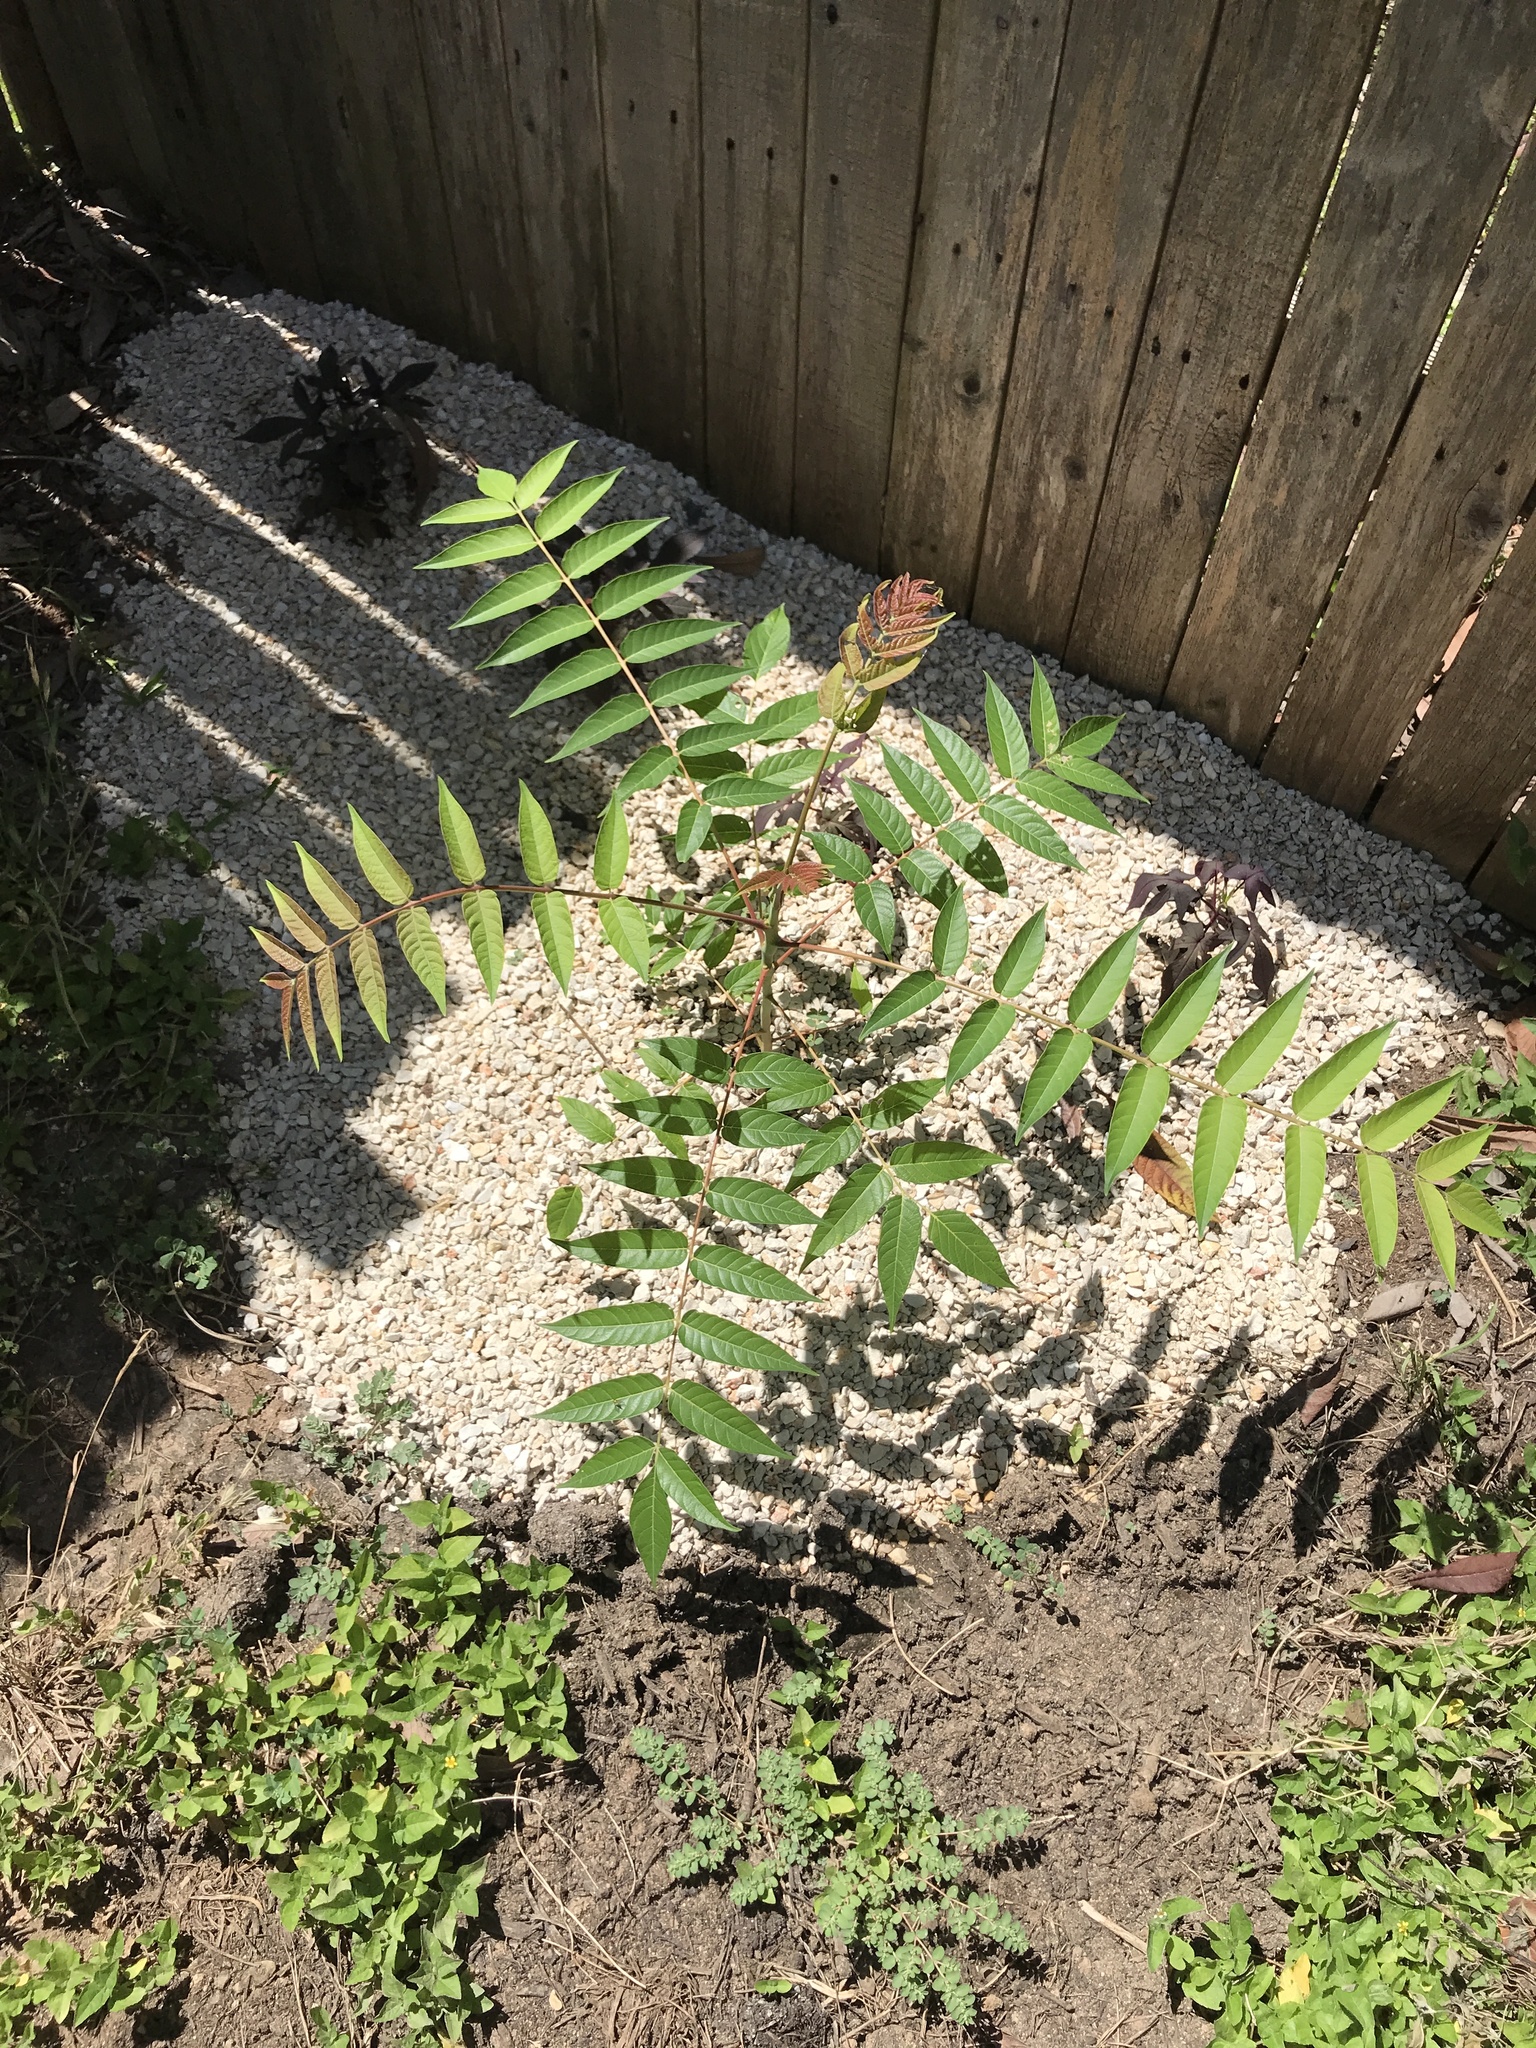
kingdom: Plantae
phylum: Tracheophyta
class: Magnoliopsida
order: Sapindales
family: Simaroubaceae
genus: Ailanthus
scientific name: Ailanthus altissima
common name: Tree-of-heaven
